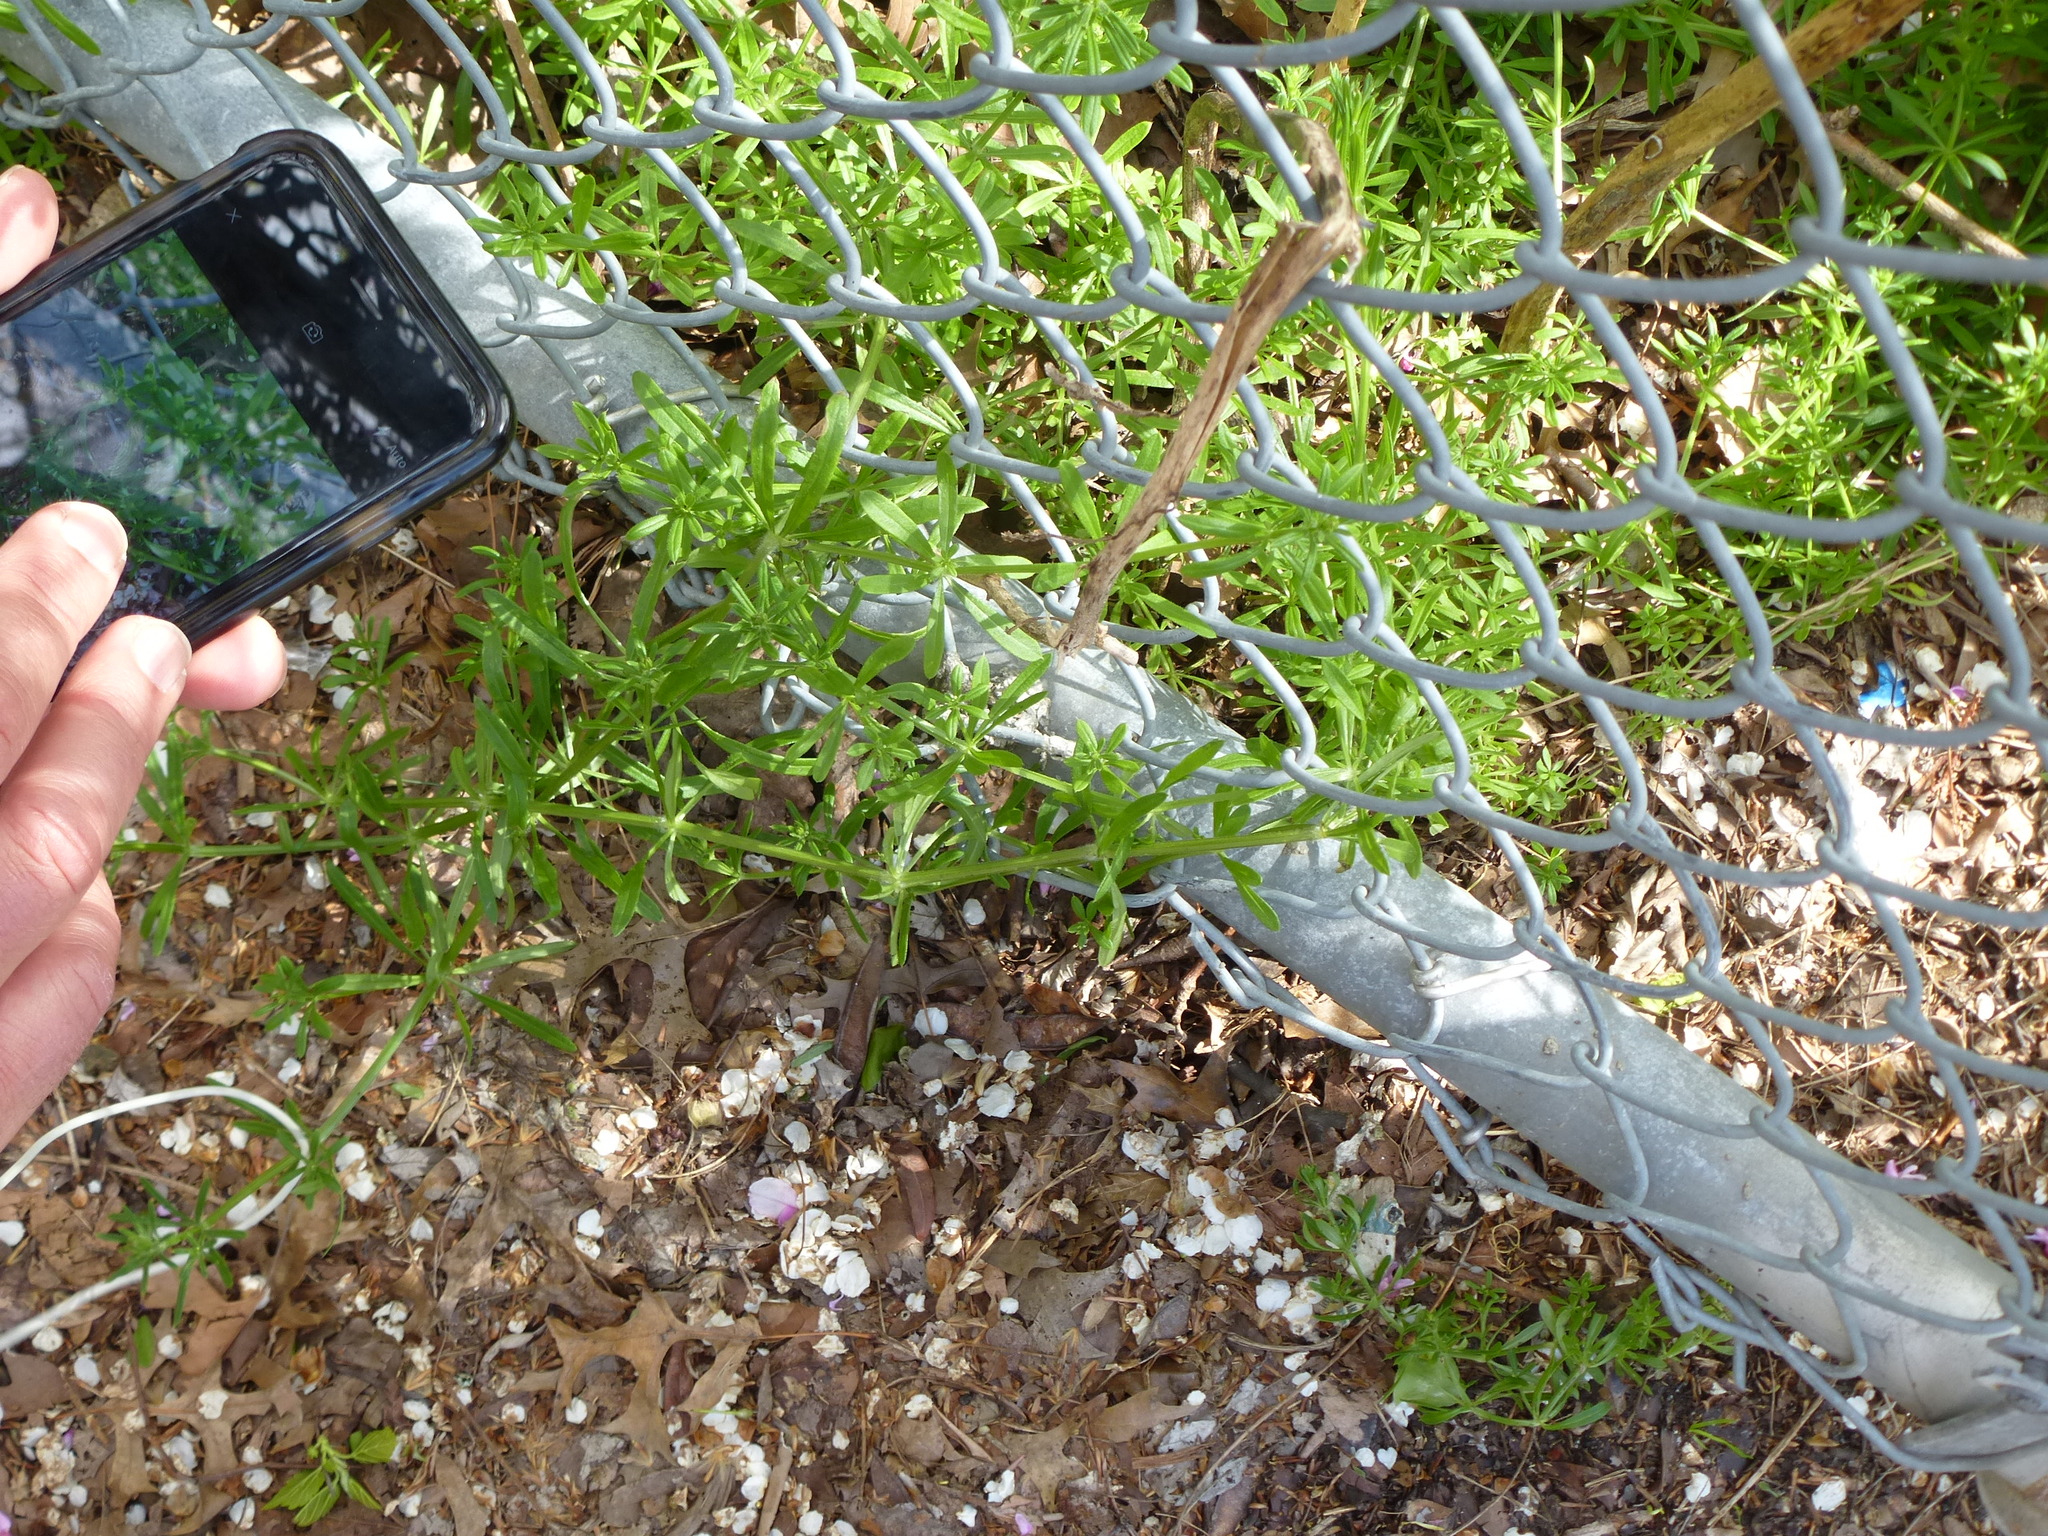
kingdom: Plantae
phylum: Tracheophyta
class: Magnoliopsida
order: Gentianales
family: Rubiaceae
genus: Galium
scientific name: Galium aparine
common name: Cleavers
